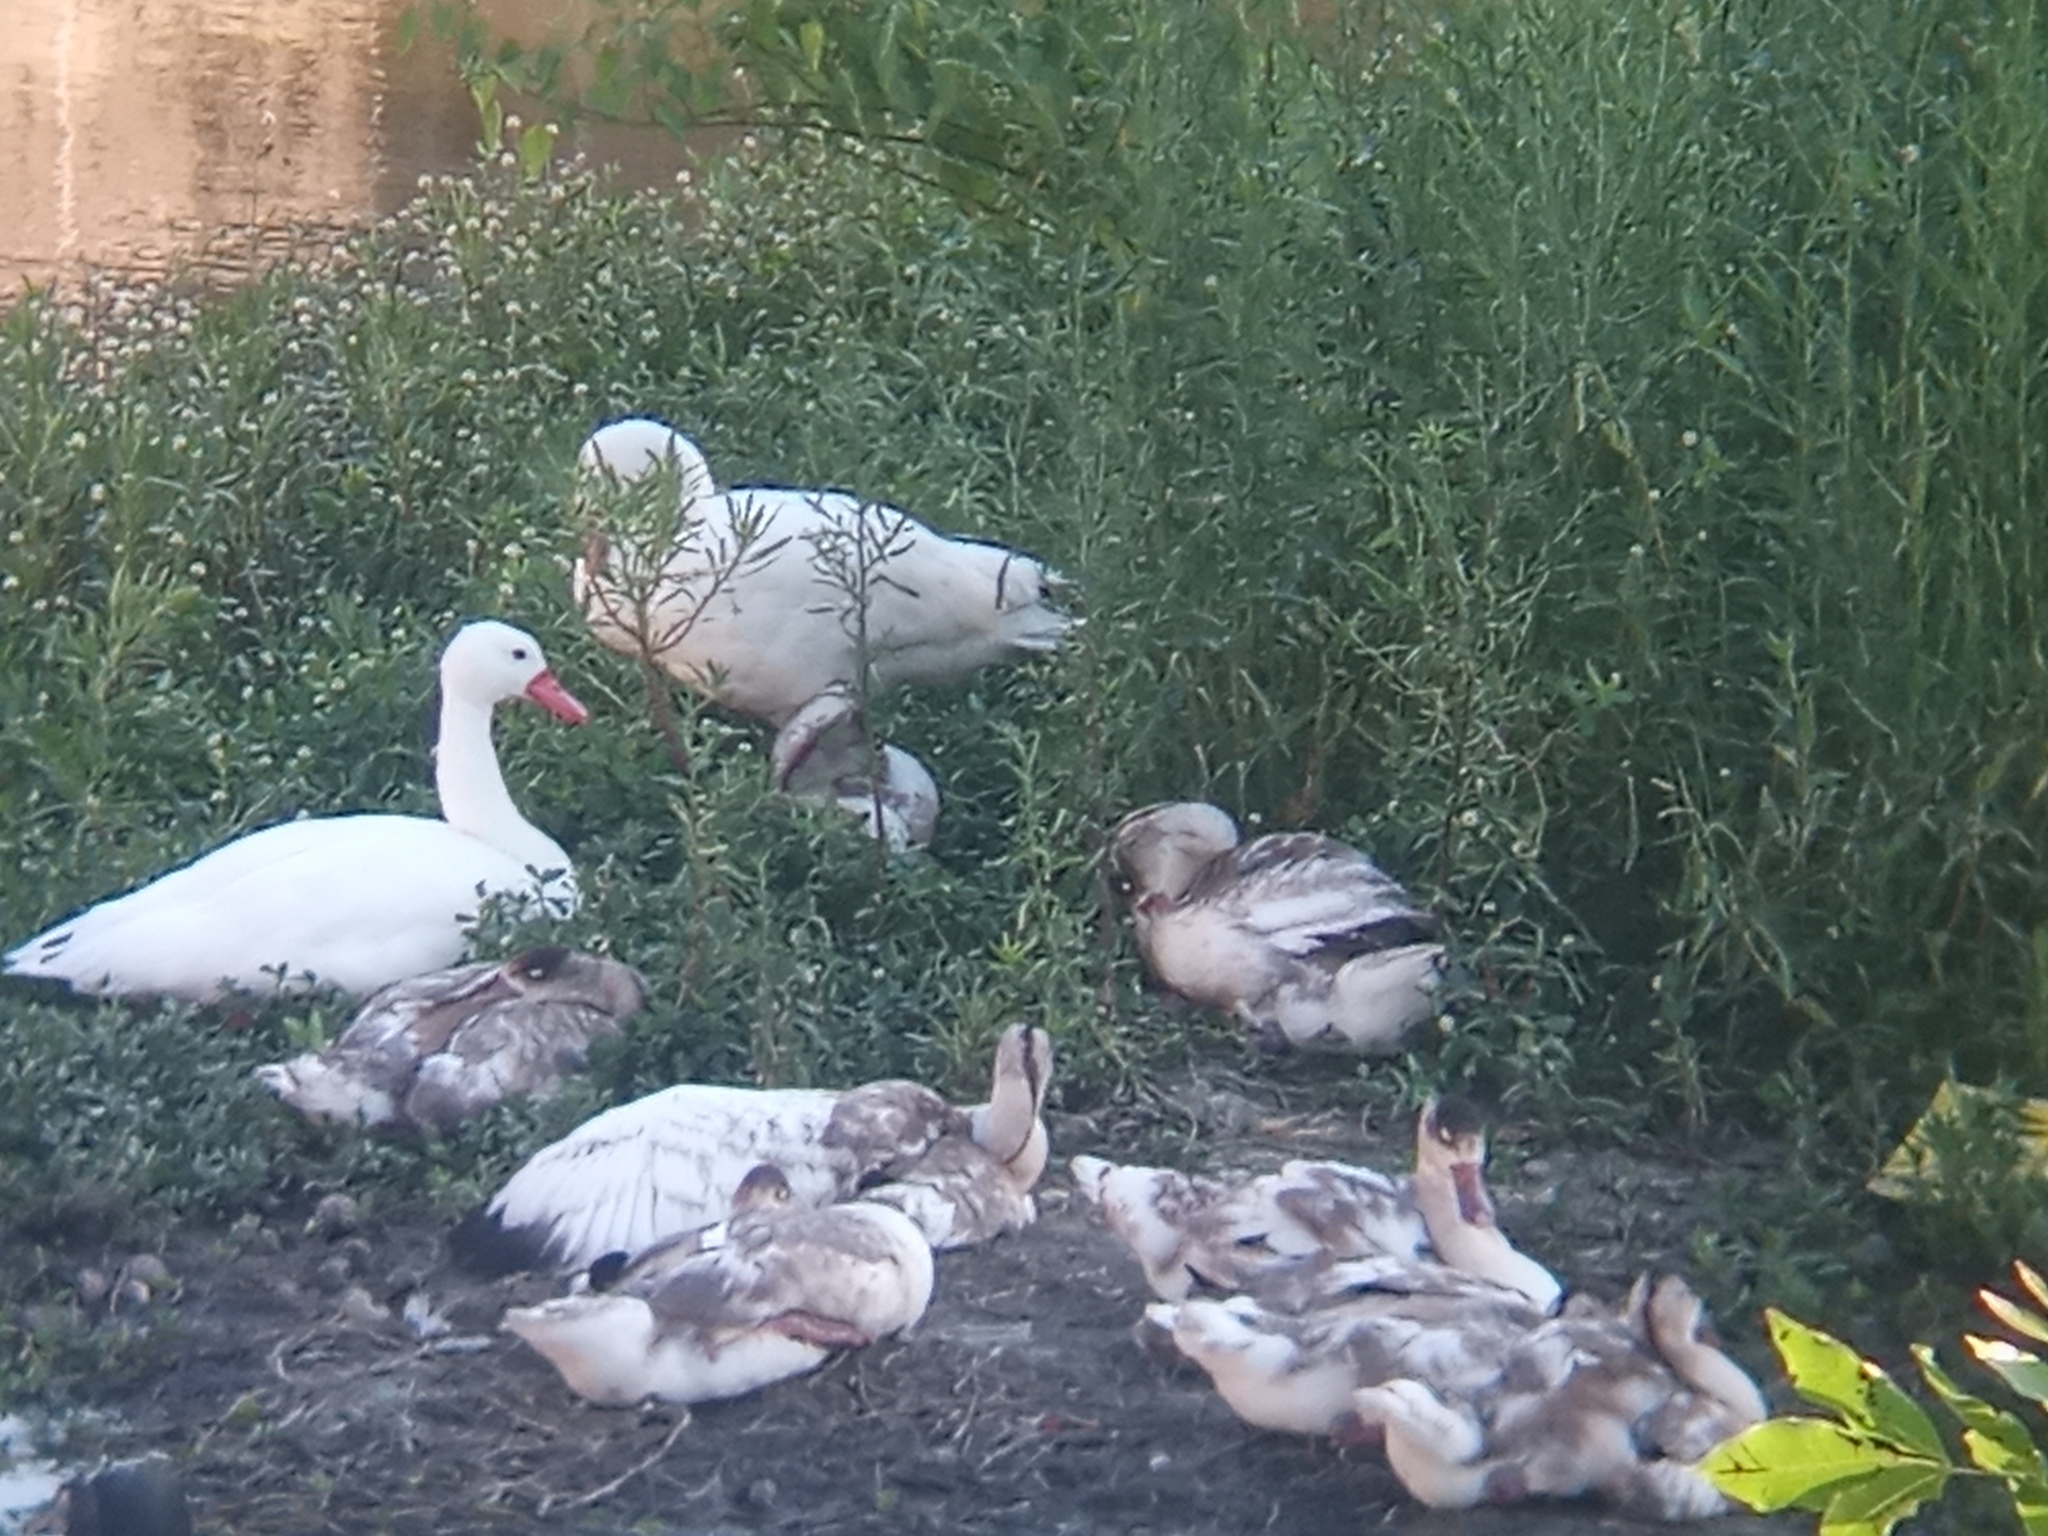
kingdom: Animalia
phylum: Chordata
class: Aves
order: Anseriformes
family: Anatidae
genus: Coscoroba
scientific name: Coscoroba coscoroba
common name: Coscoroba swan
